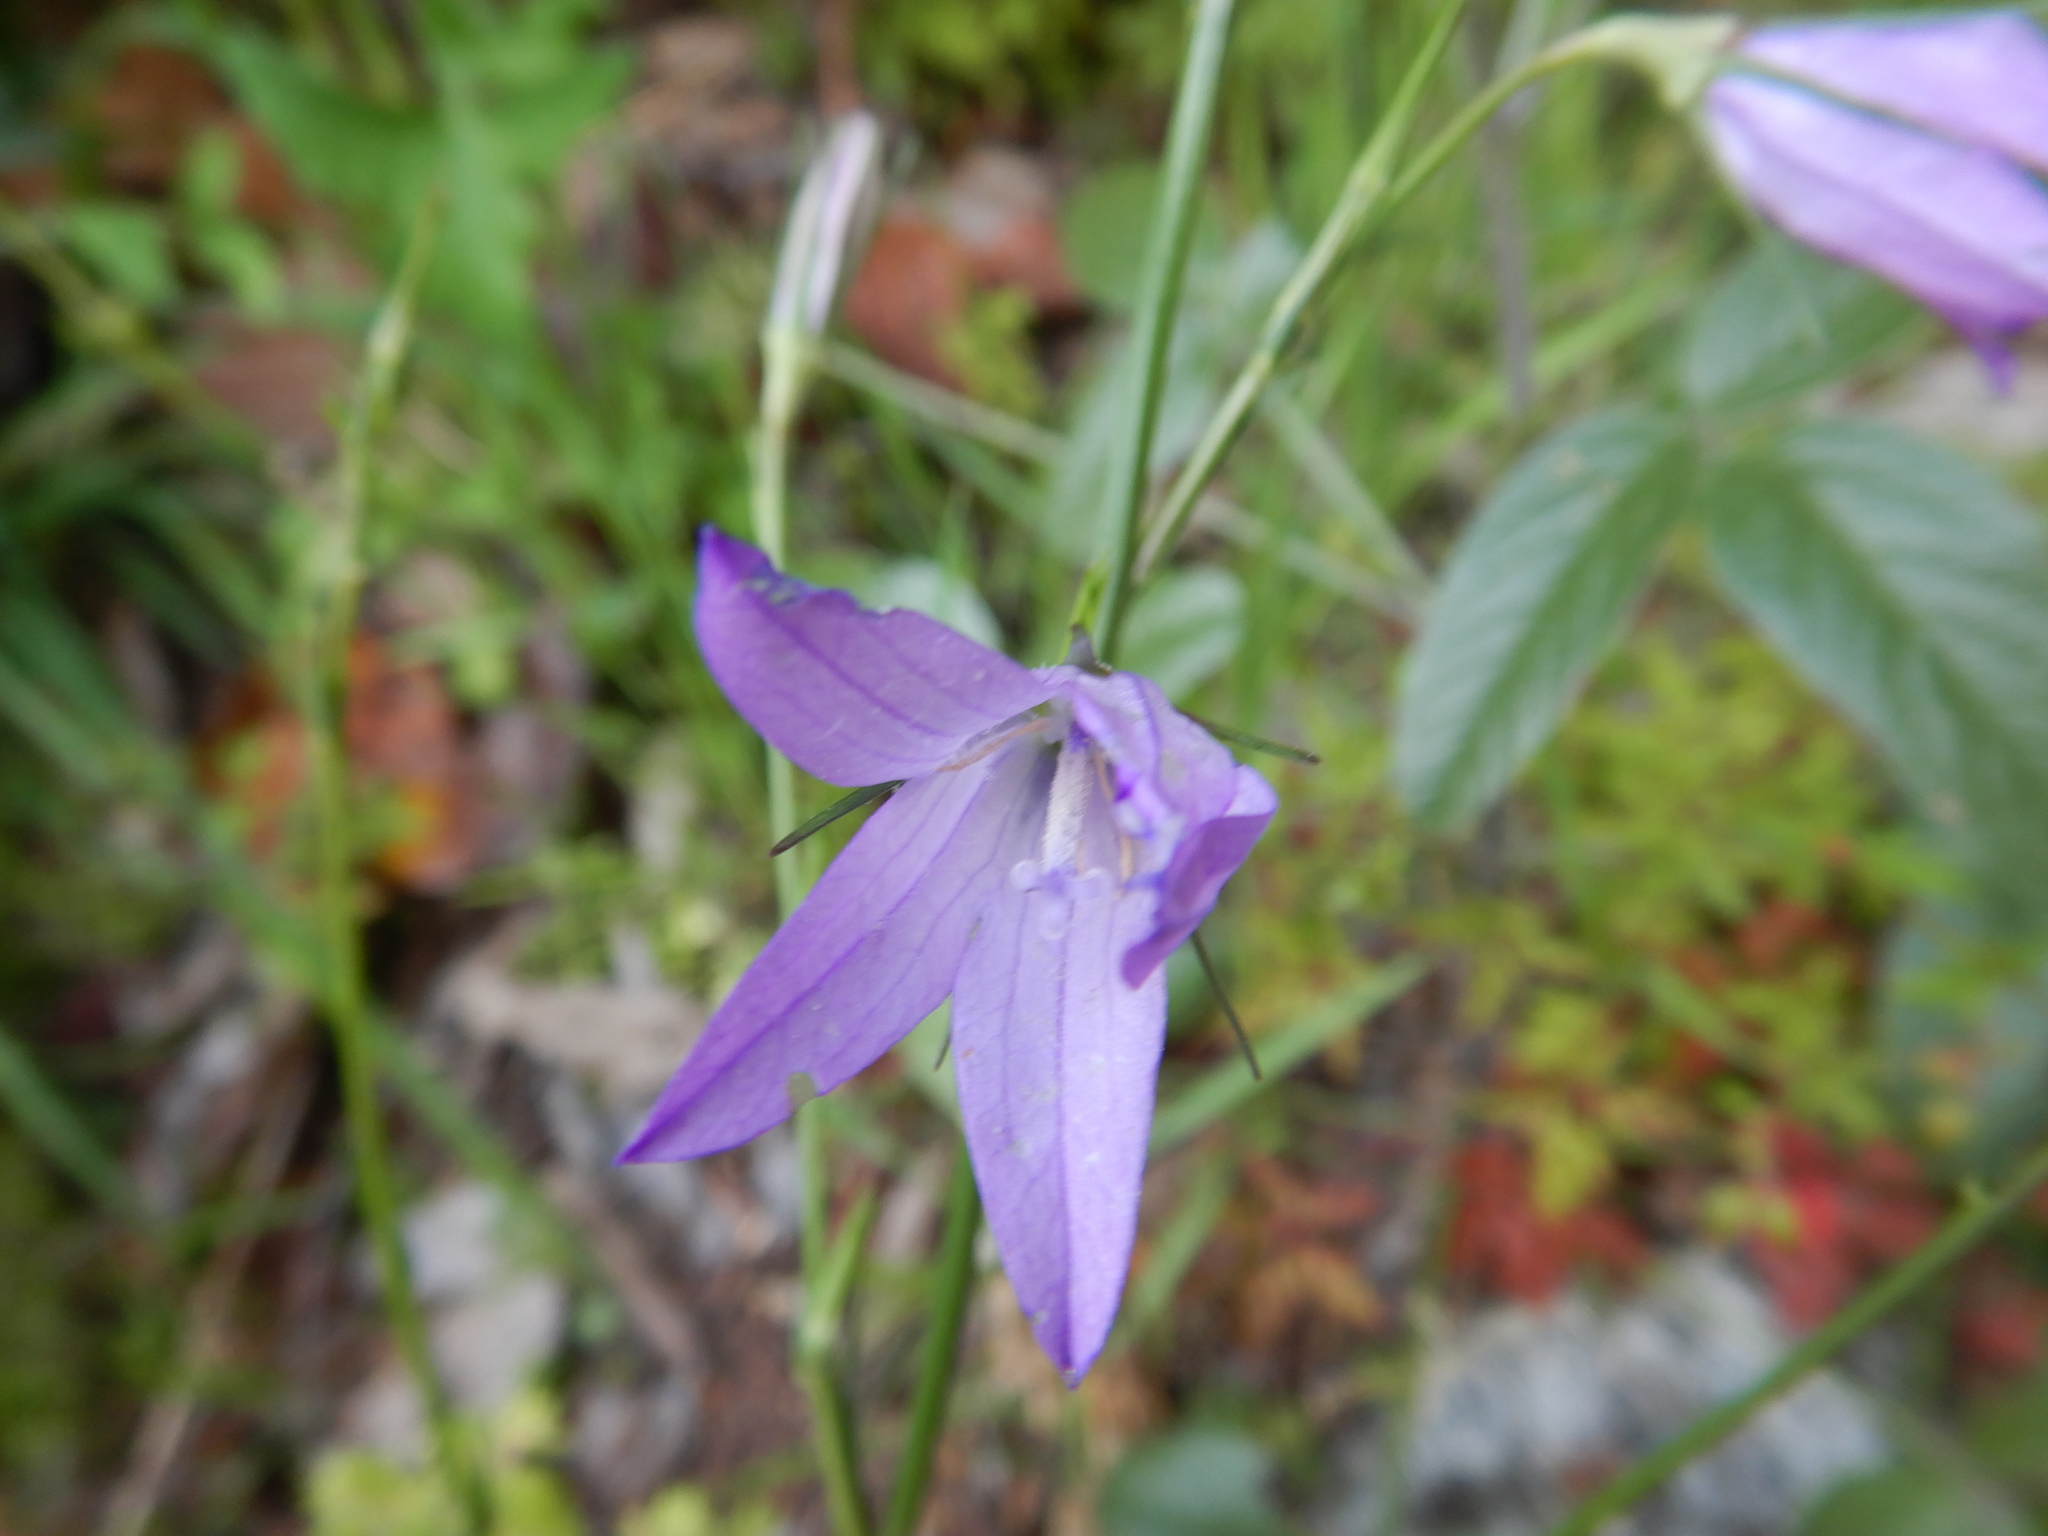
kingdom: Plantae
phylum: Tracheophyta
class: Magnoliopsida
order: Asterales
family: Campanulaceae
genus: Campanula
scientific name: Campanula rapunculus
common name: Rampion bellflower
